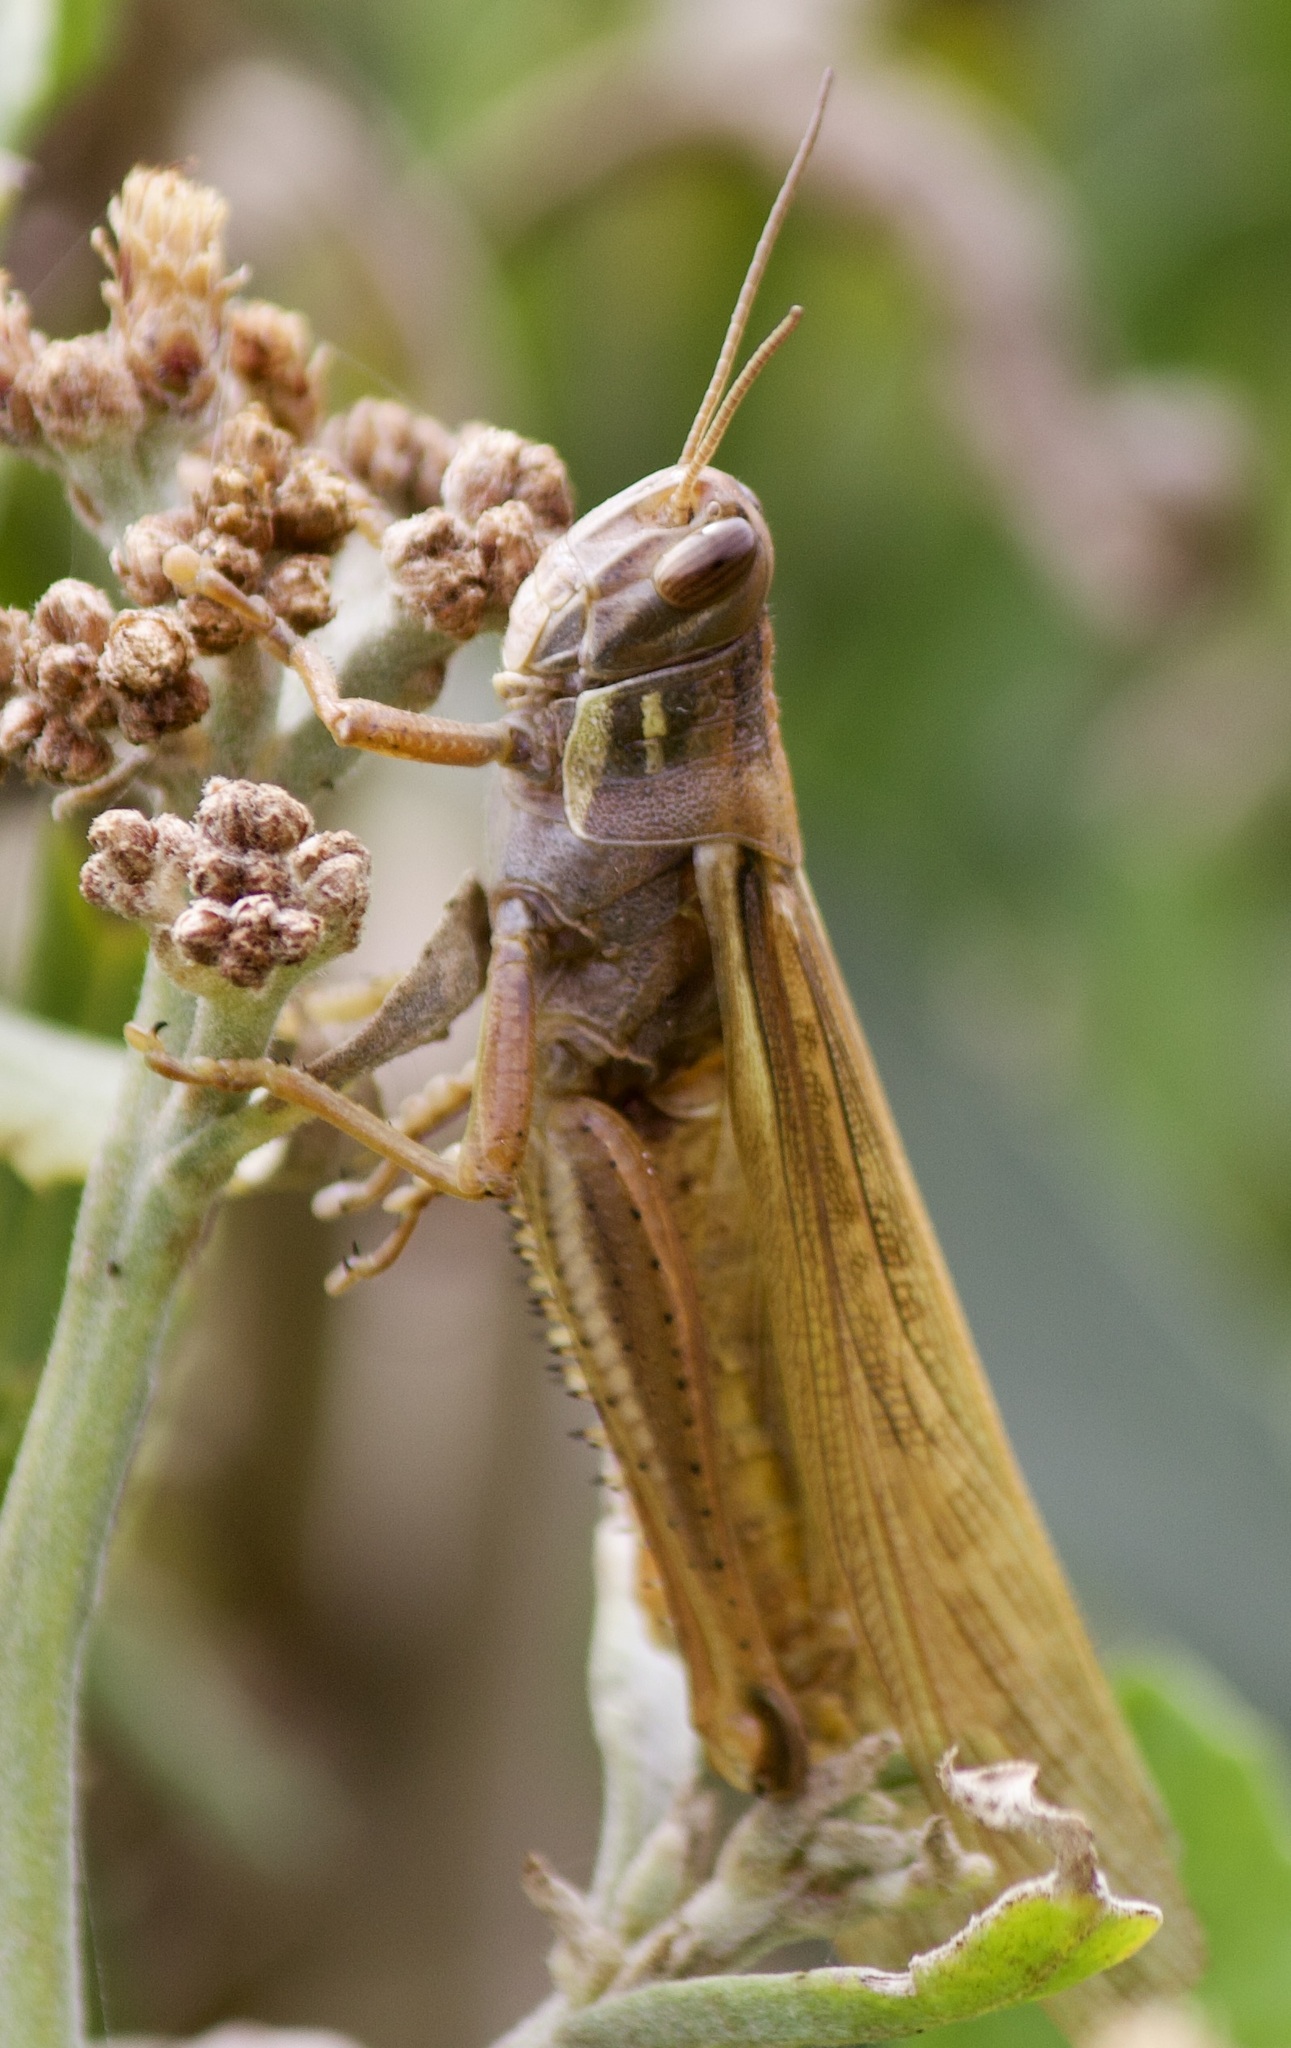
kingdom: Animalia
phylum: Arthropoda
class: Insecta
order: Orthoptera
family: Acrididae
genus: Schistocerca
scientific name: Schistocerca cancellata
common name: South american locust
